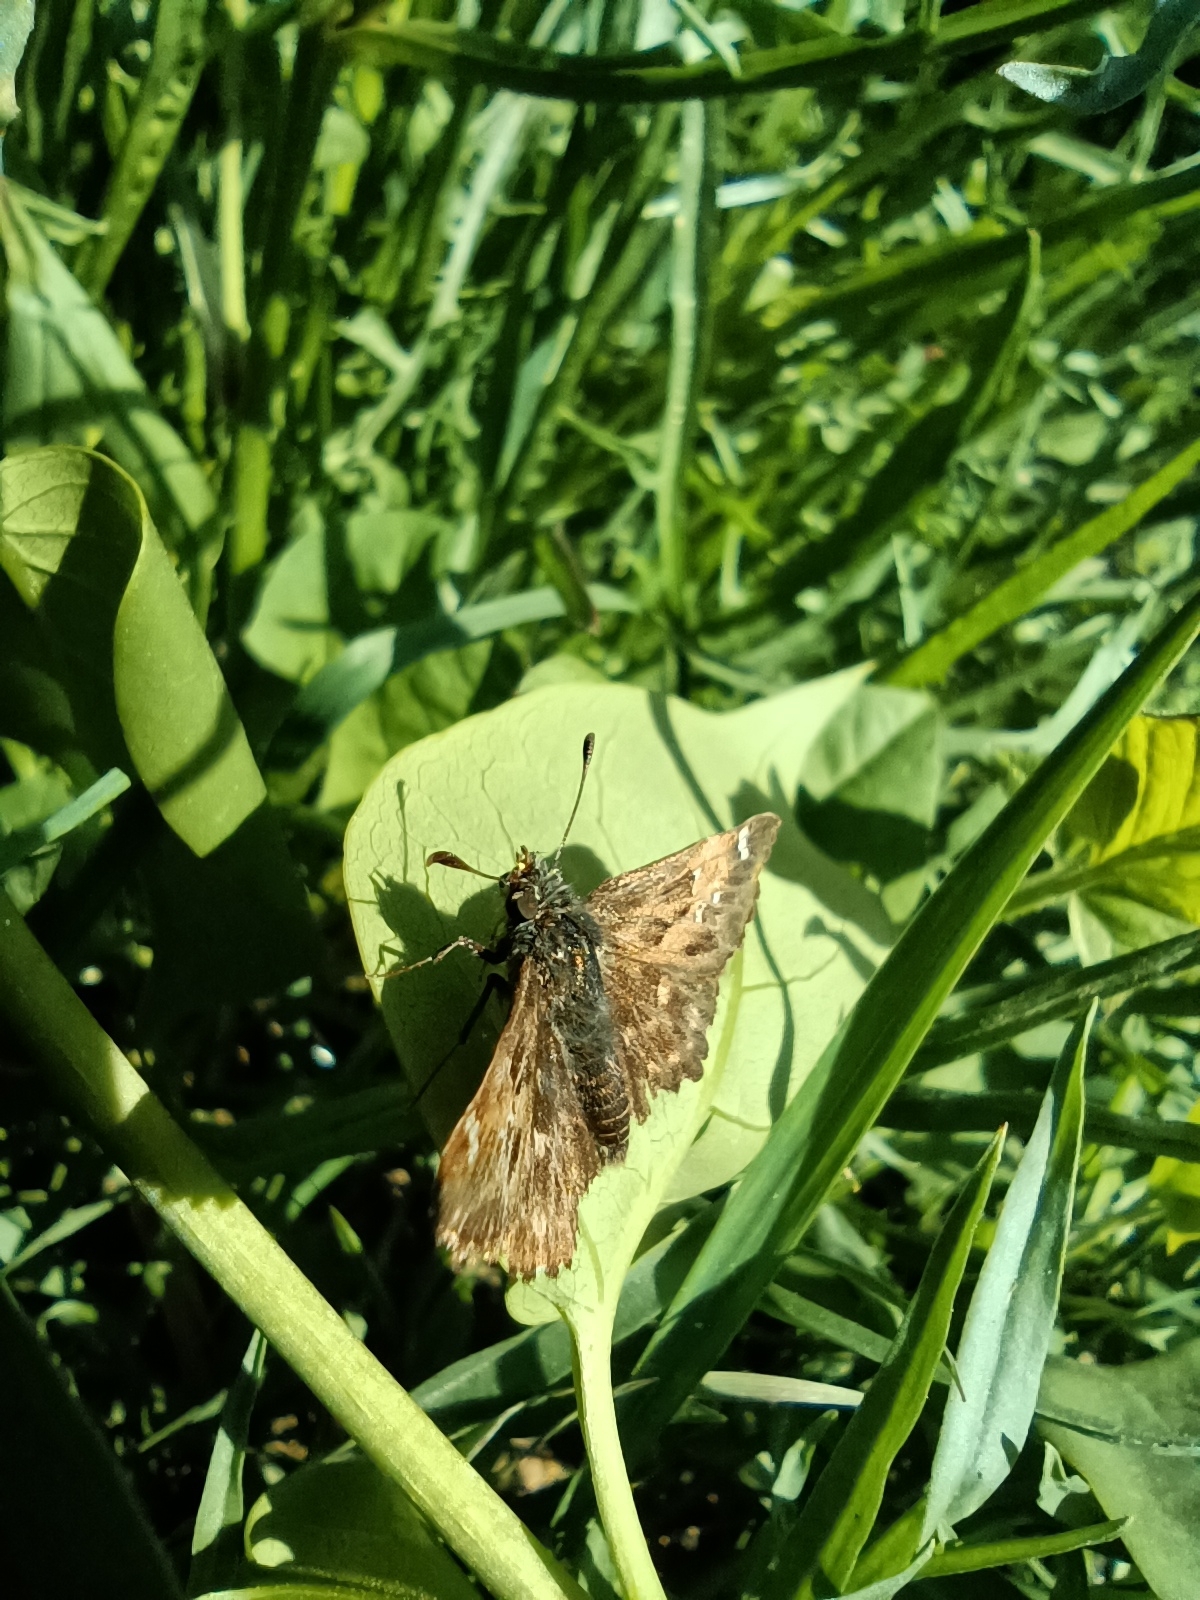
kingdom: Animalia
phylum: Arthropoda
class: Insecta
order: Lepidoptera
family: Hesperiidae
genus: Carcharodus
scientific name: Carcharodus alceae
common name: Mallow skipper
